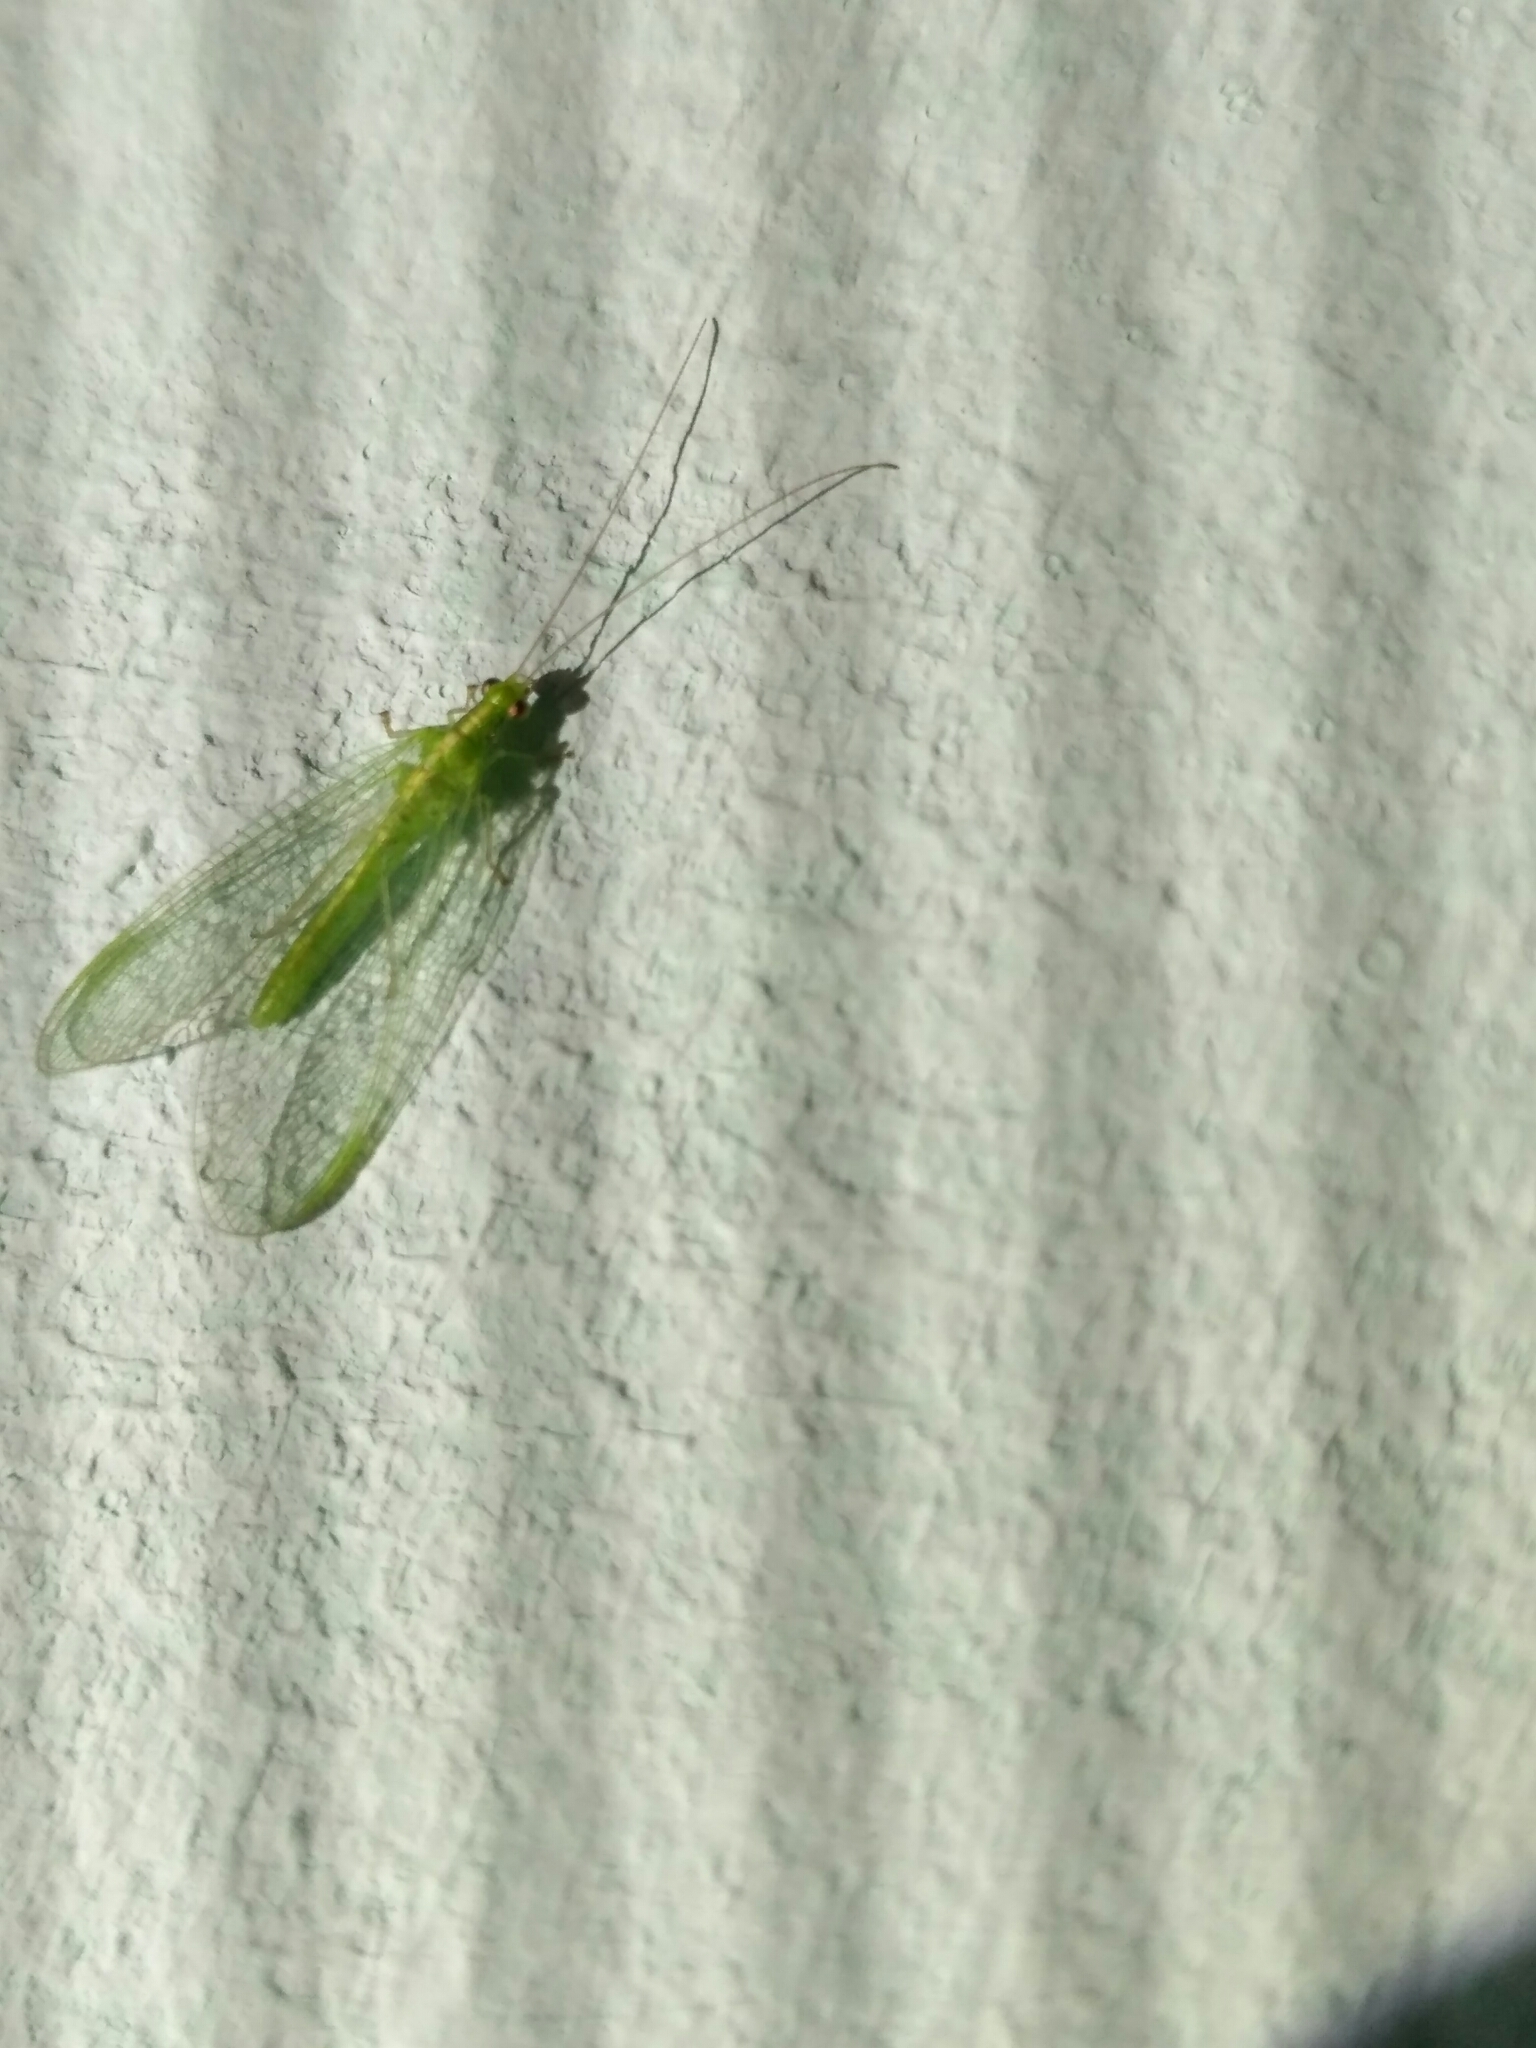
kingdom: Animalia
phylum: Arthropoda
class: Insecta
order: Neuroptera
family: Chrysopidae
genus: Chrysoperla
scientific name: Chrysoperla
